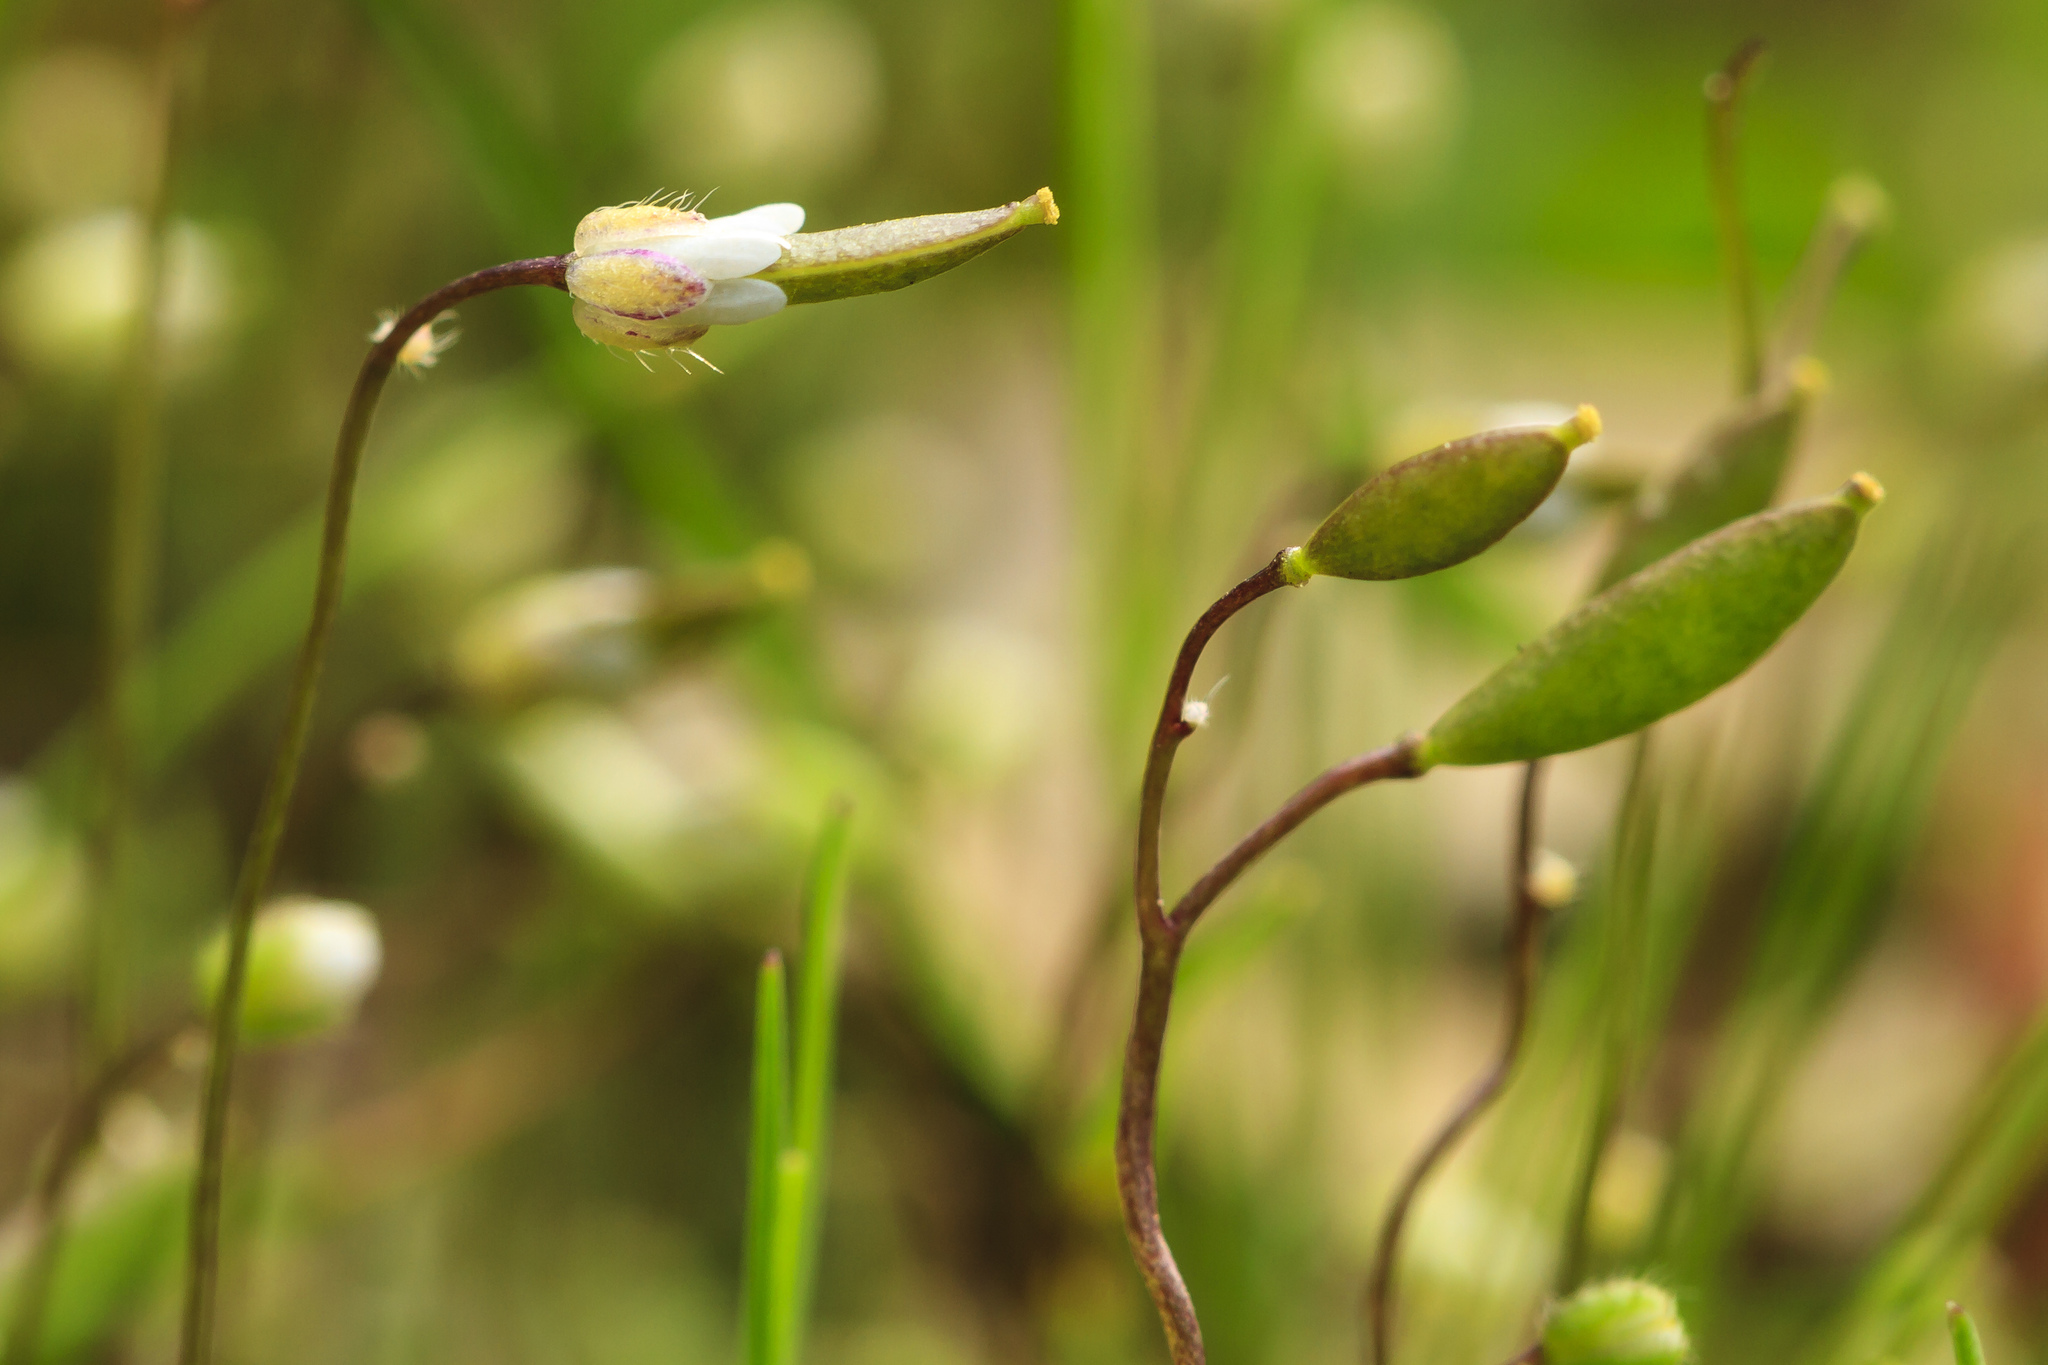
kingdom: Plantae
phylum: Tracheophyta
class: Magnoliopsida
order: Brassicales
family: Brassicaceae
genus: Draba
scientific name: Draba verna
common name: Spring draba
